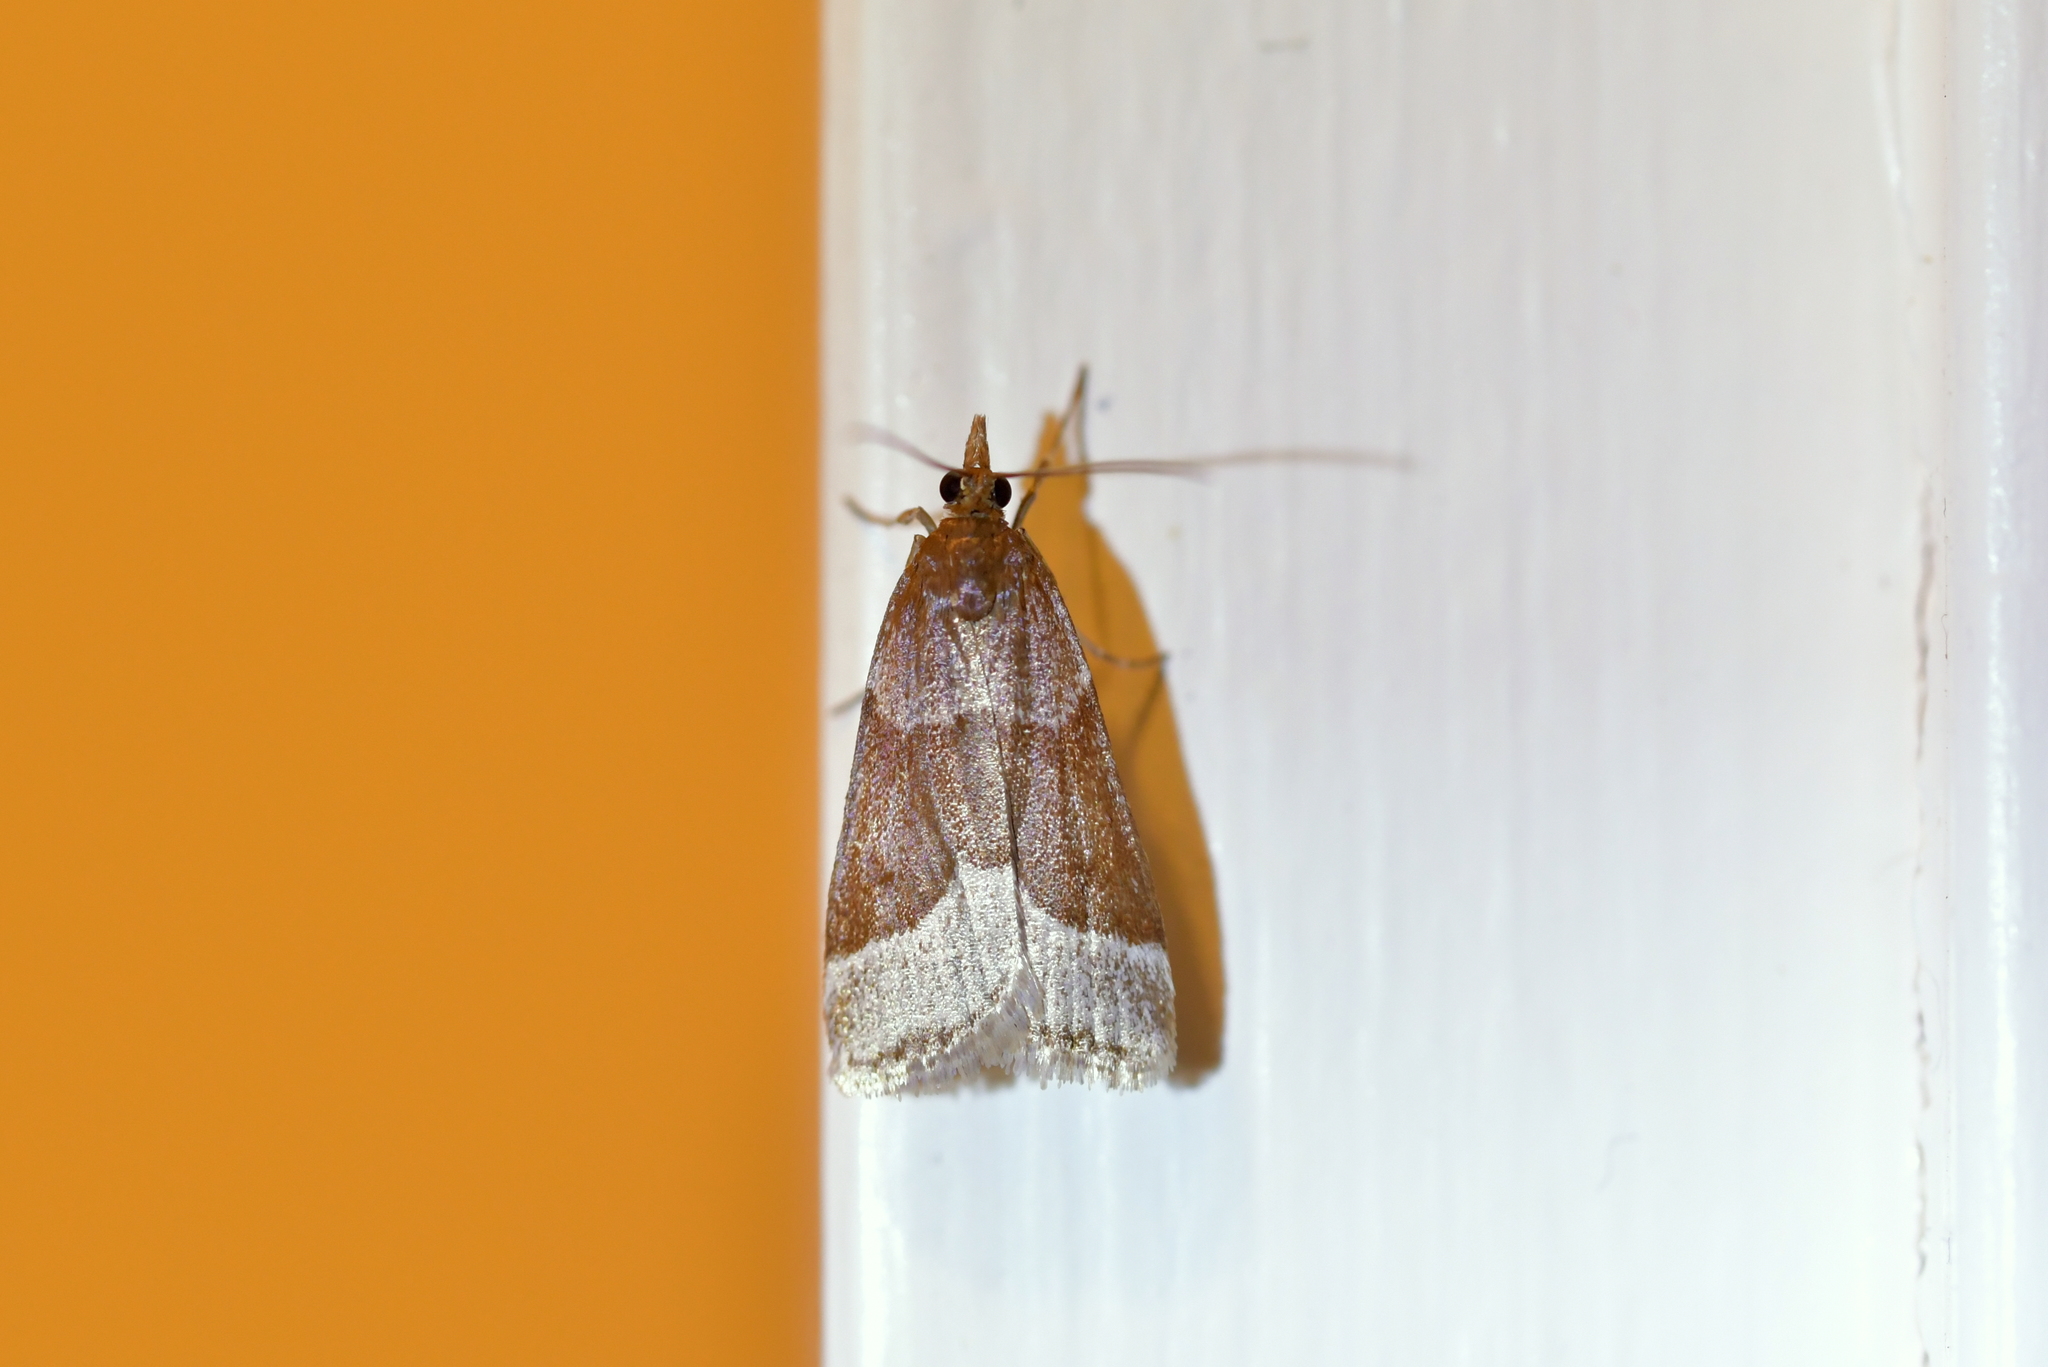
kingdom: Animalia
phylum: Arthropoda
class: Insecta
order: Lepidoptera
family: Crambidae
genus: Eudonia
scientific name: Eudonia feredayi
